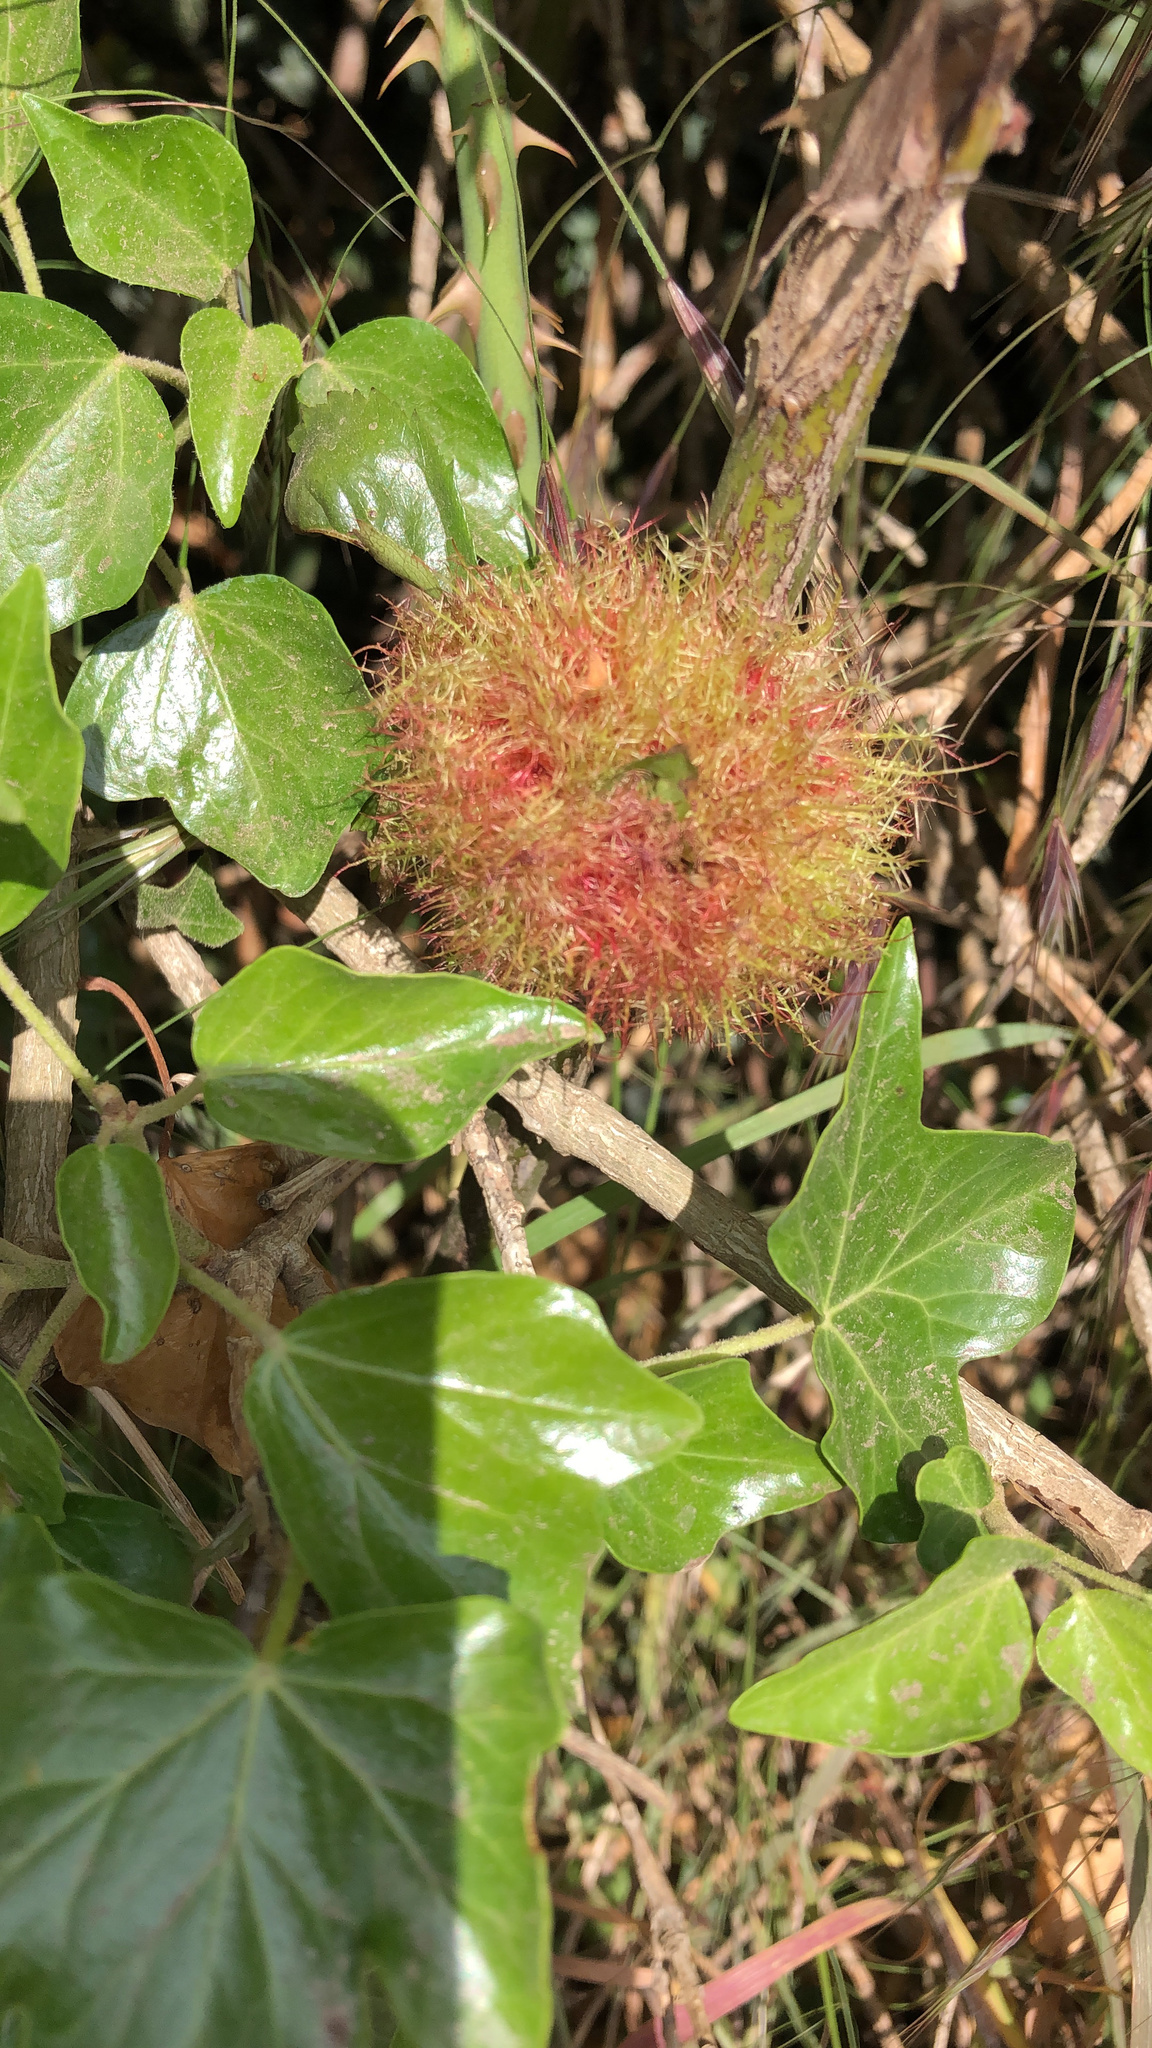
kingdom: Animalia
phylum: Arthropoda
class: Insecta
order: Hymenoptera
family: Cynipidae
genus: Diplolepis
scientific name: Diplolepis rosae
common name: Bedeguar gall
